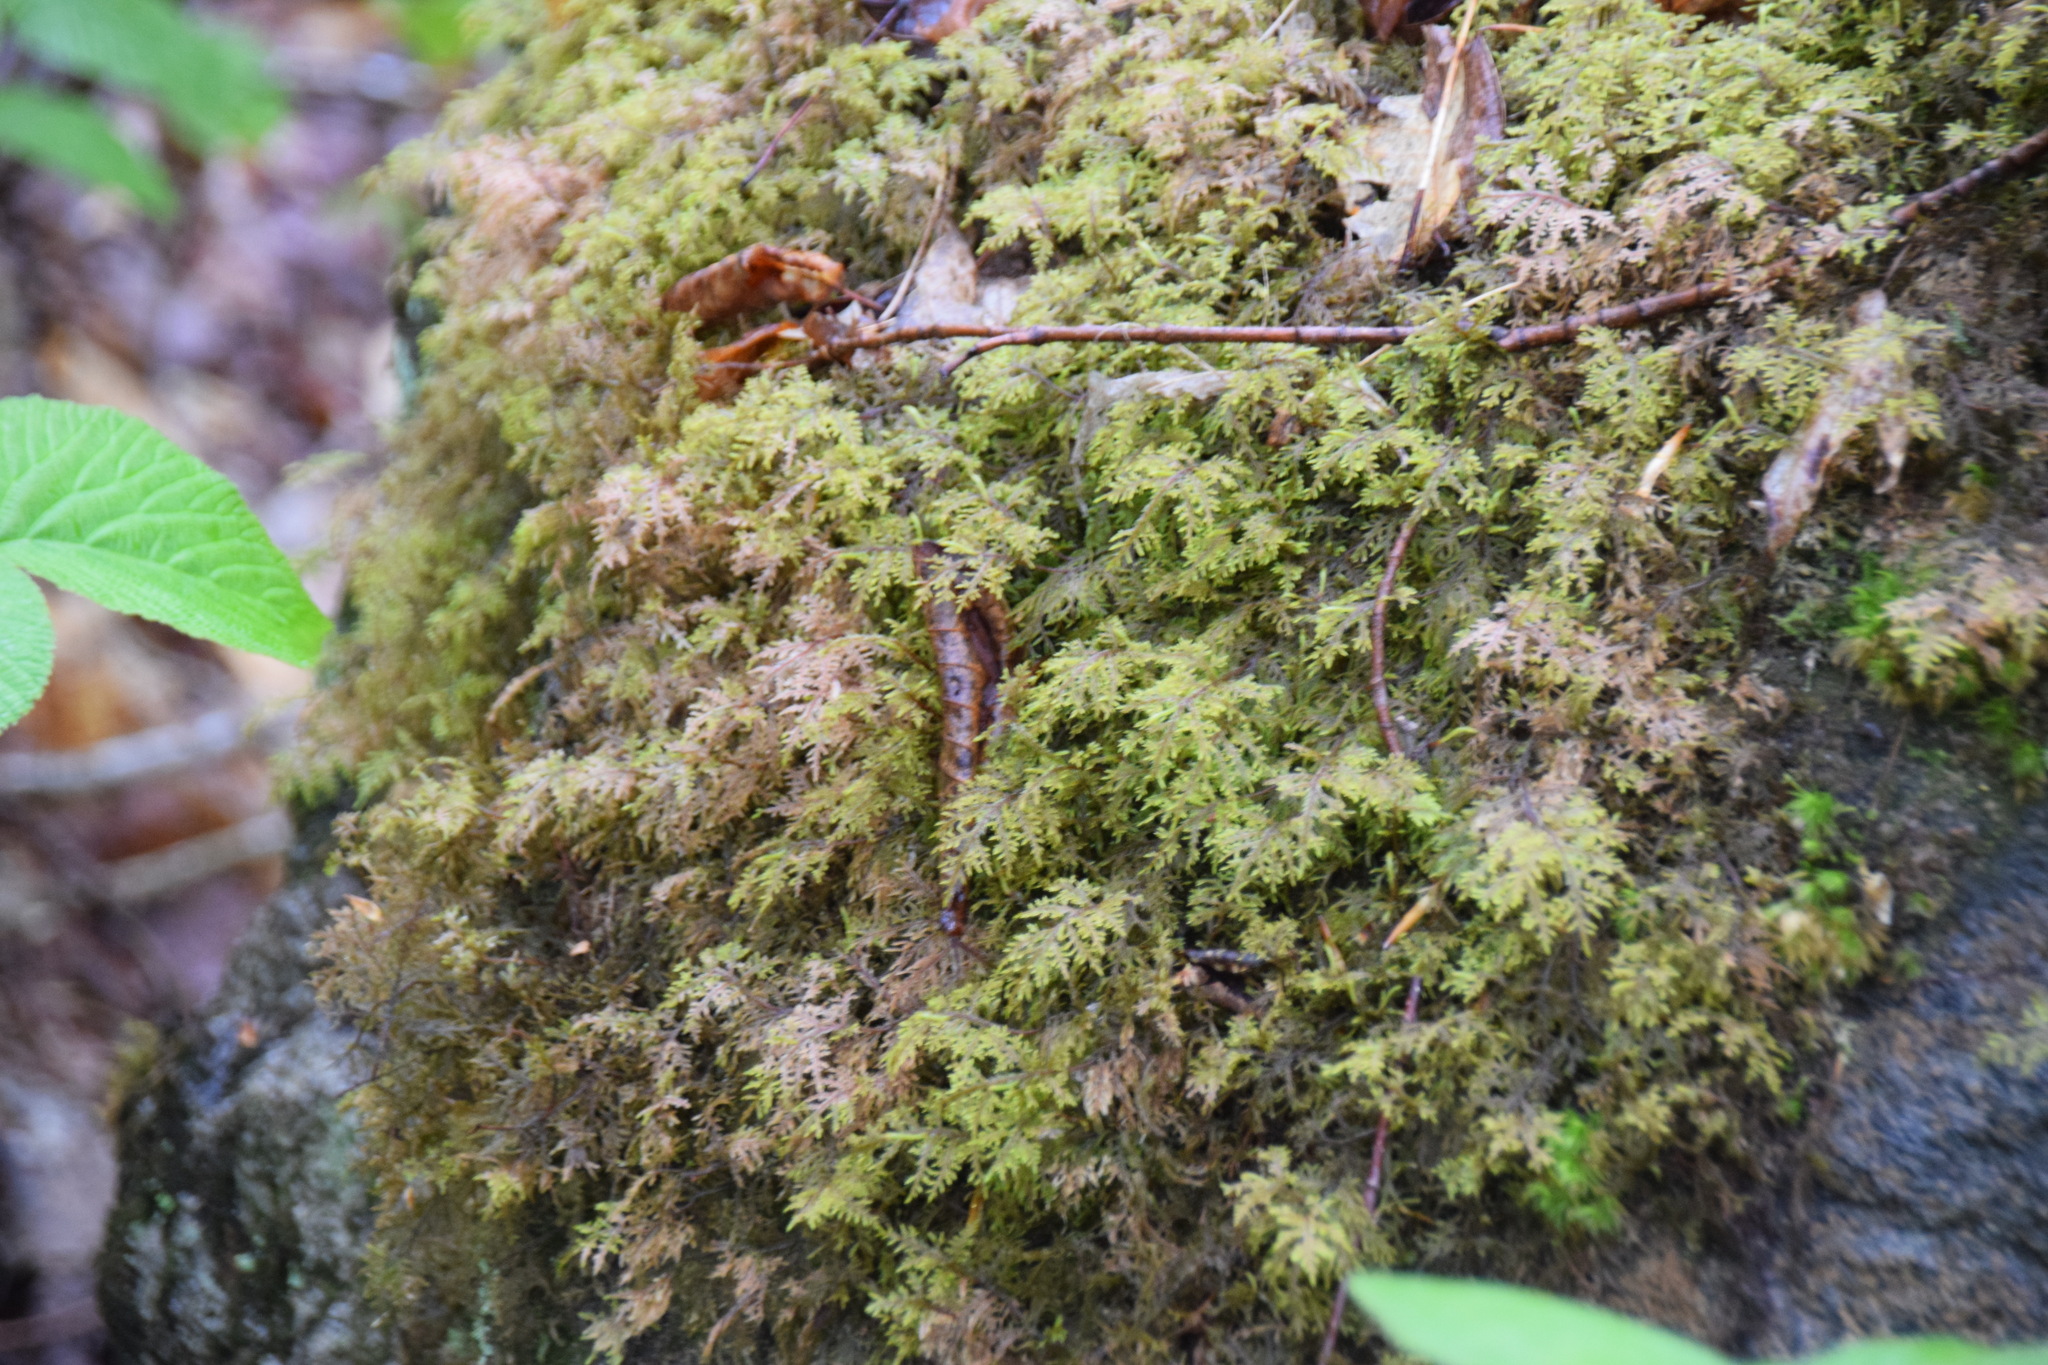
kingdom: Plantae
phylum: Bryophyta
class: Bryopsida
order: Hypnales
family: Hylocomiaceae
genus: Hylocomium
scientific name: Hylocomium splendens
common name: Stairstep moss
